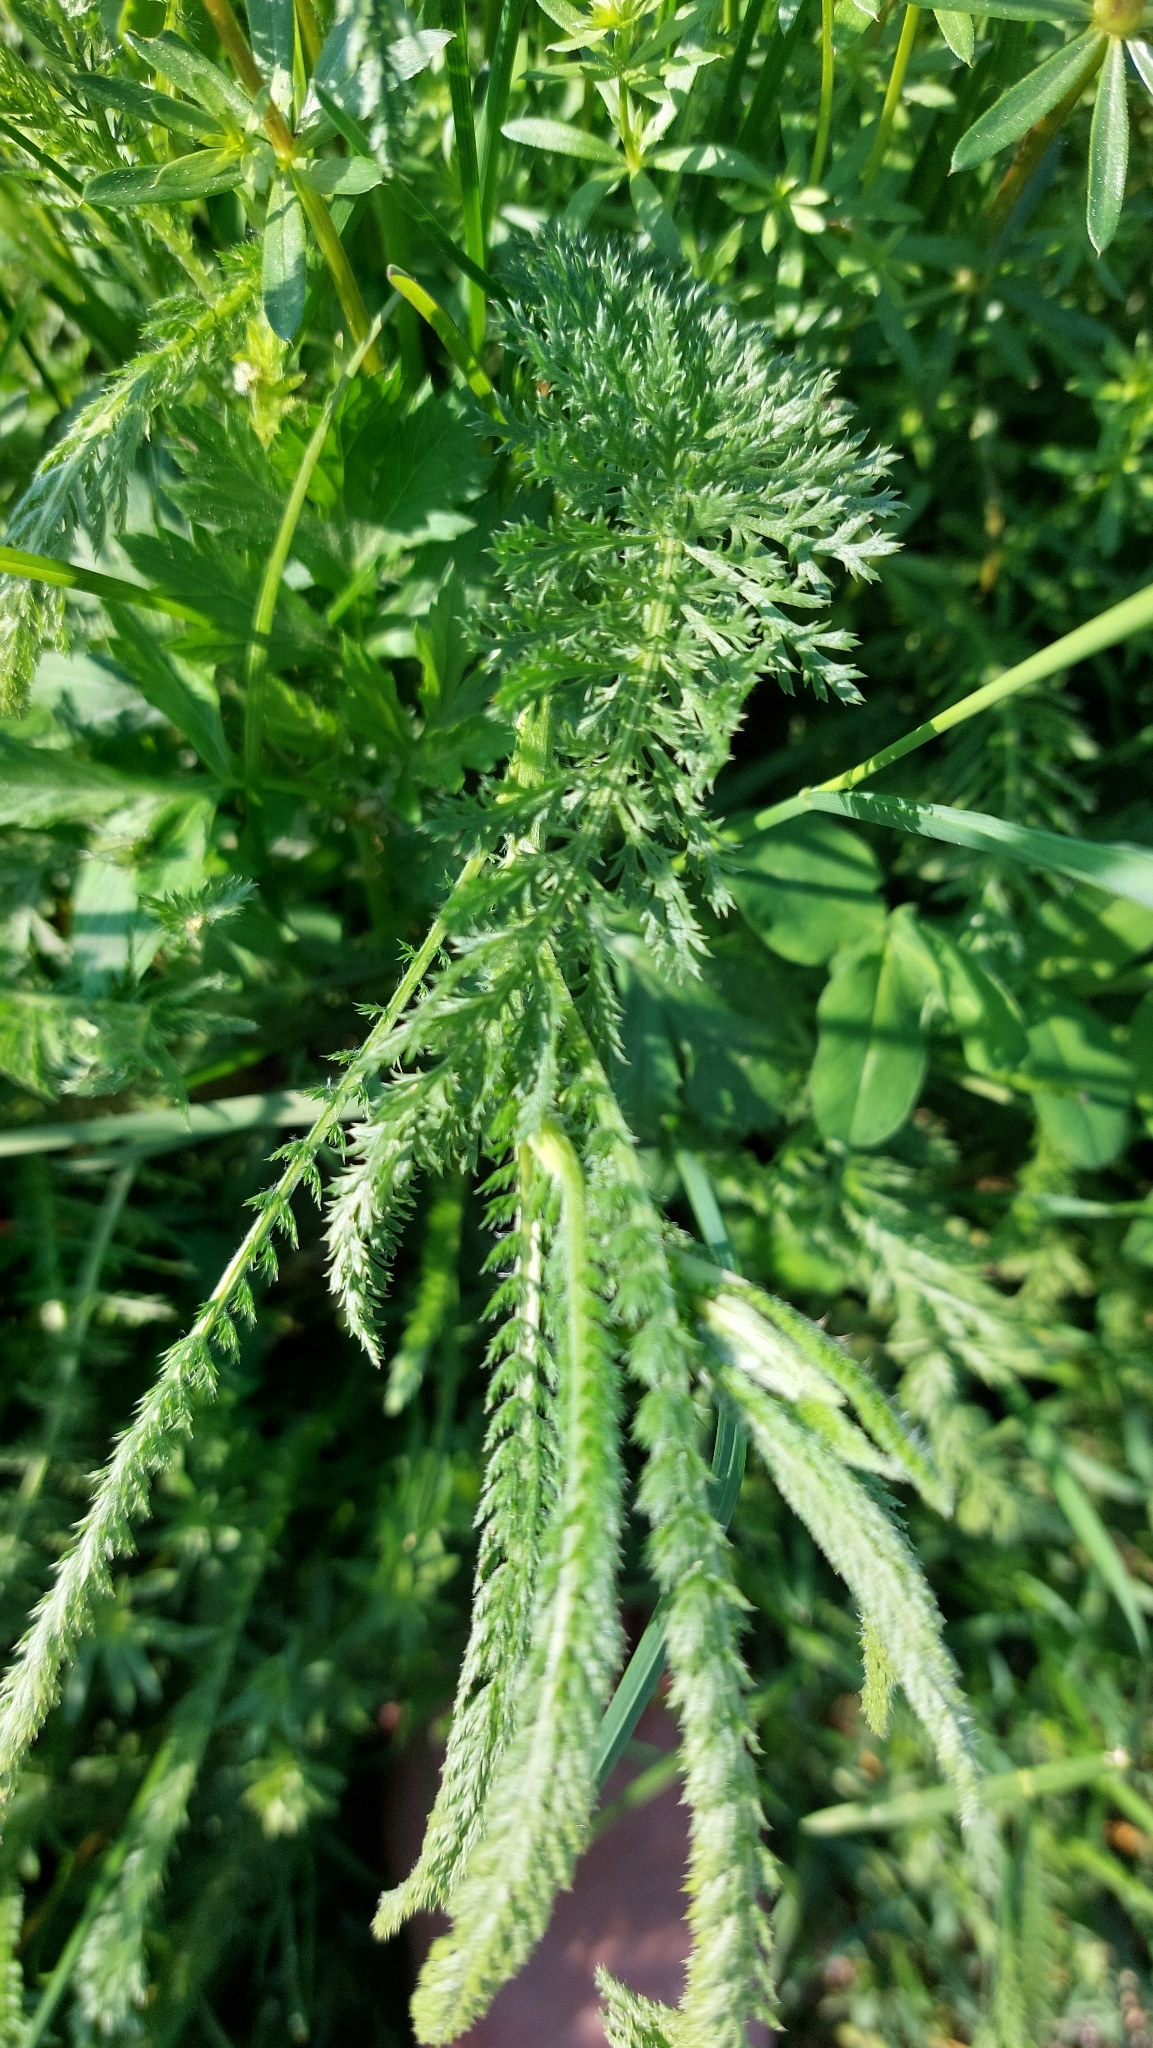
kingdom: Plantae
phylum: Tracheophyta
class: Magnoliopsida
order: Asterales
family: Asteraceae
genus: Achillea
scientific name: Achillea millefolium
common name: Yarrow
